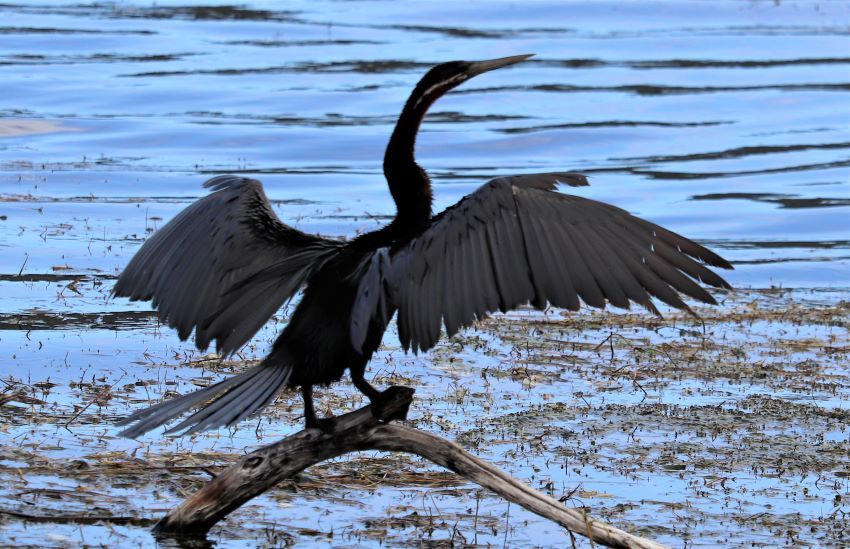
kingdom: Animalia
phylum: Chordata
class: Aves
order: Suliformes
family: Anhingidae
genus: Anhinga
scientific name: Anhinga rufa
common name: African darter
